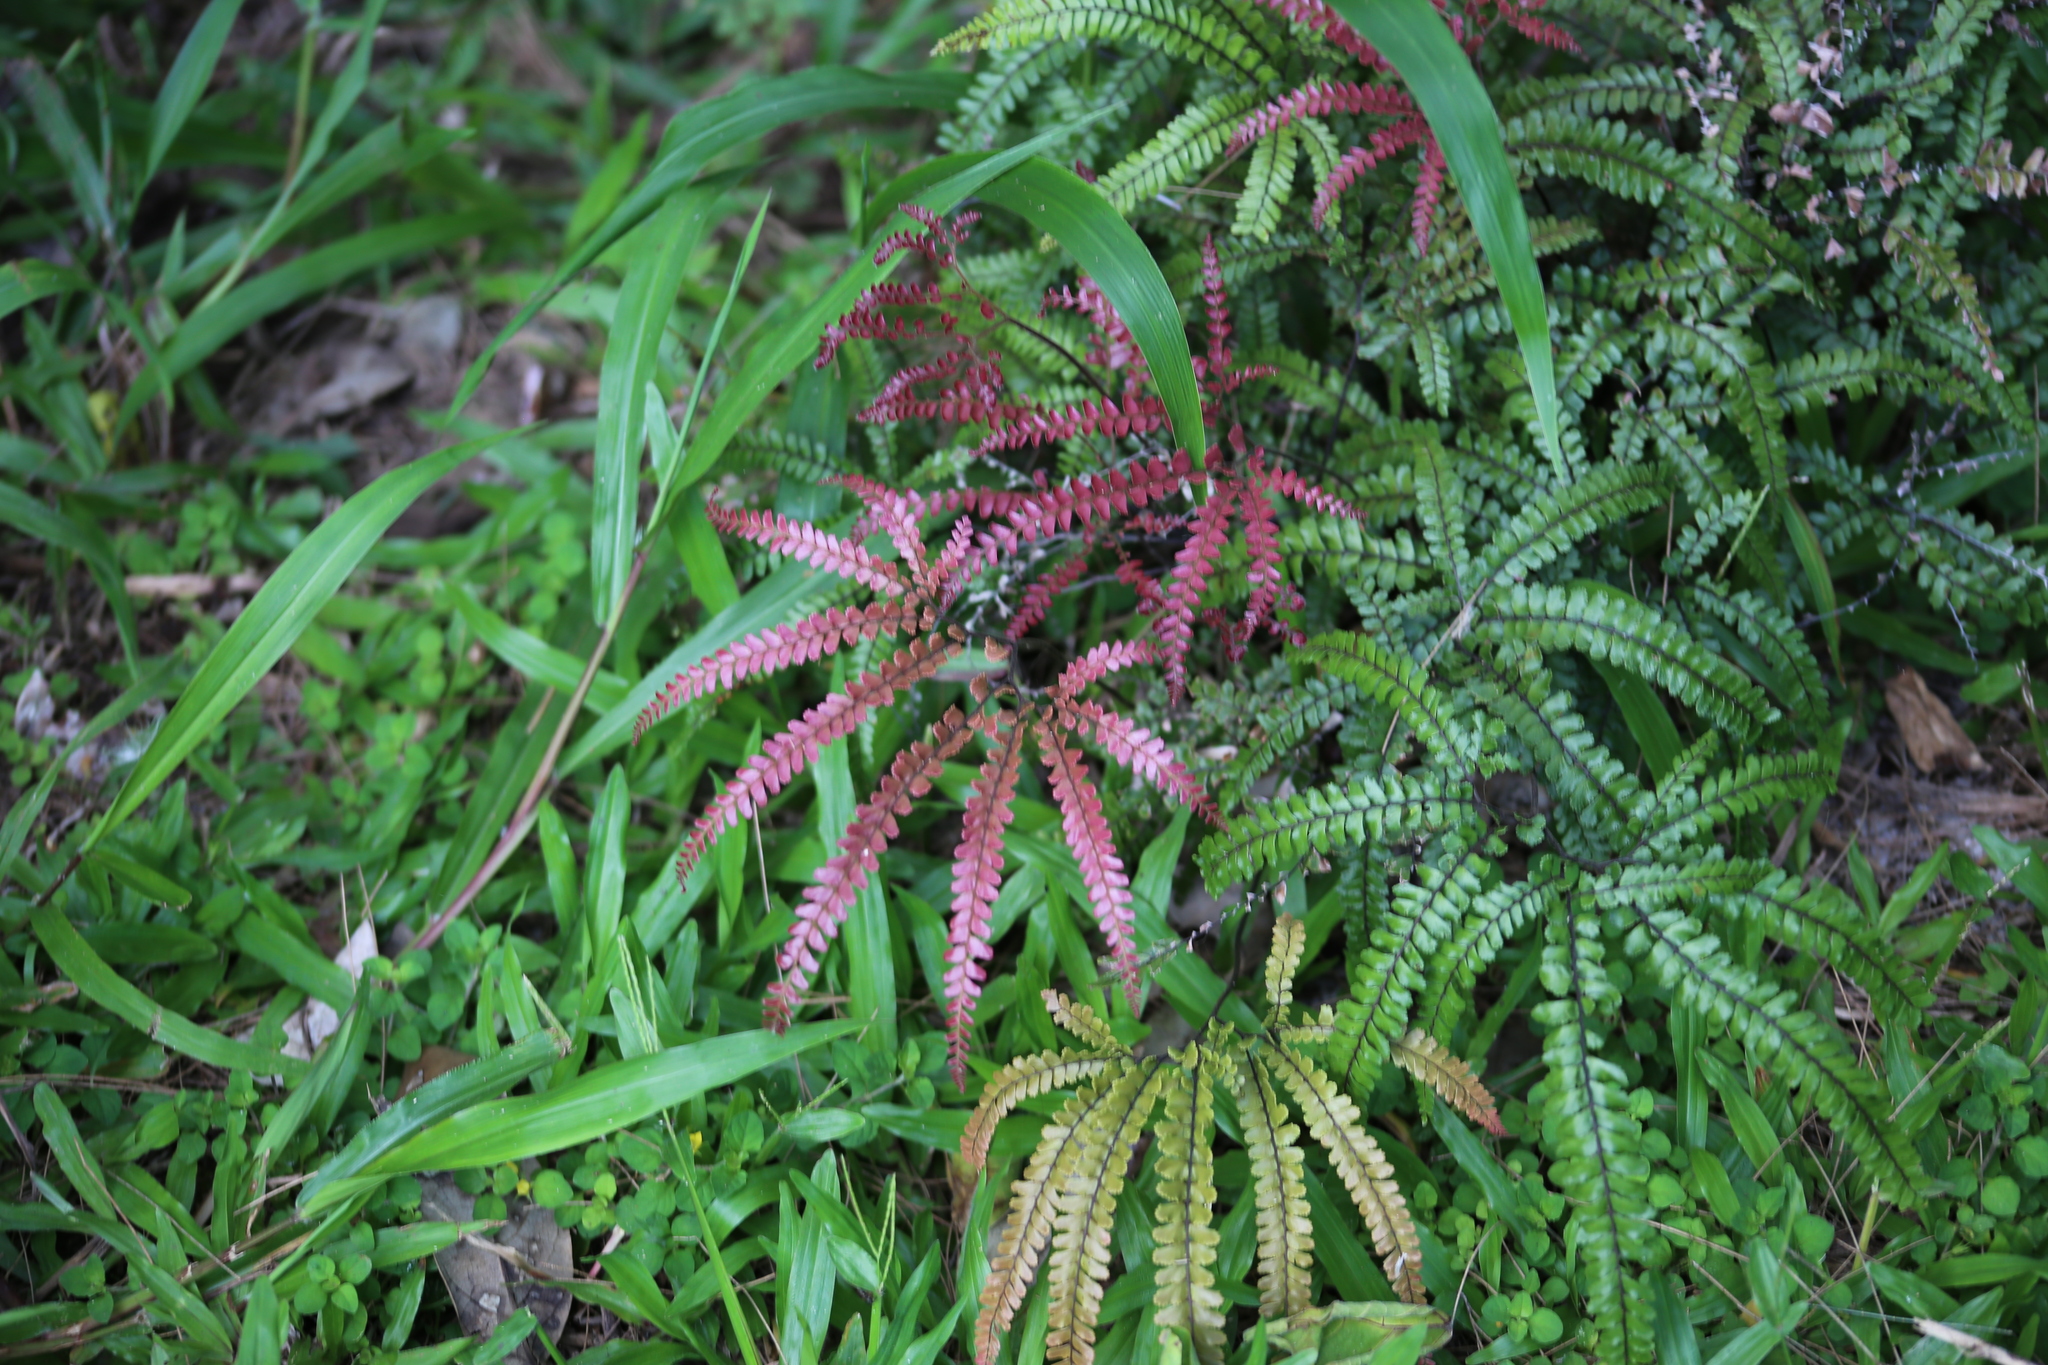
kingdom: Plantae
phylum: Tracheophyta
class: Polypodiopsida
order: Polypodiales
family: Pteridaceae
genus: Adiantum
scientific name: Adiantum hispidulum
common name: Rough maidenhair
